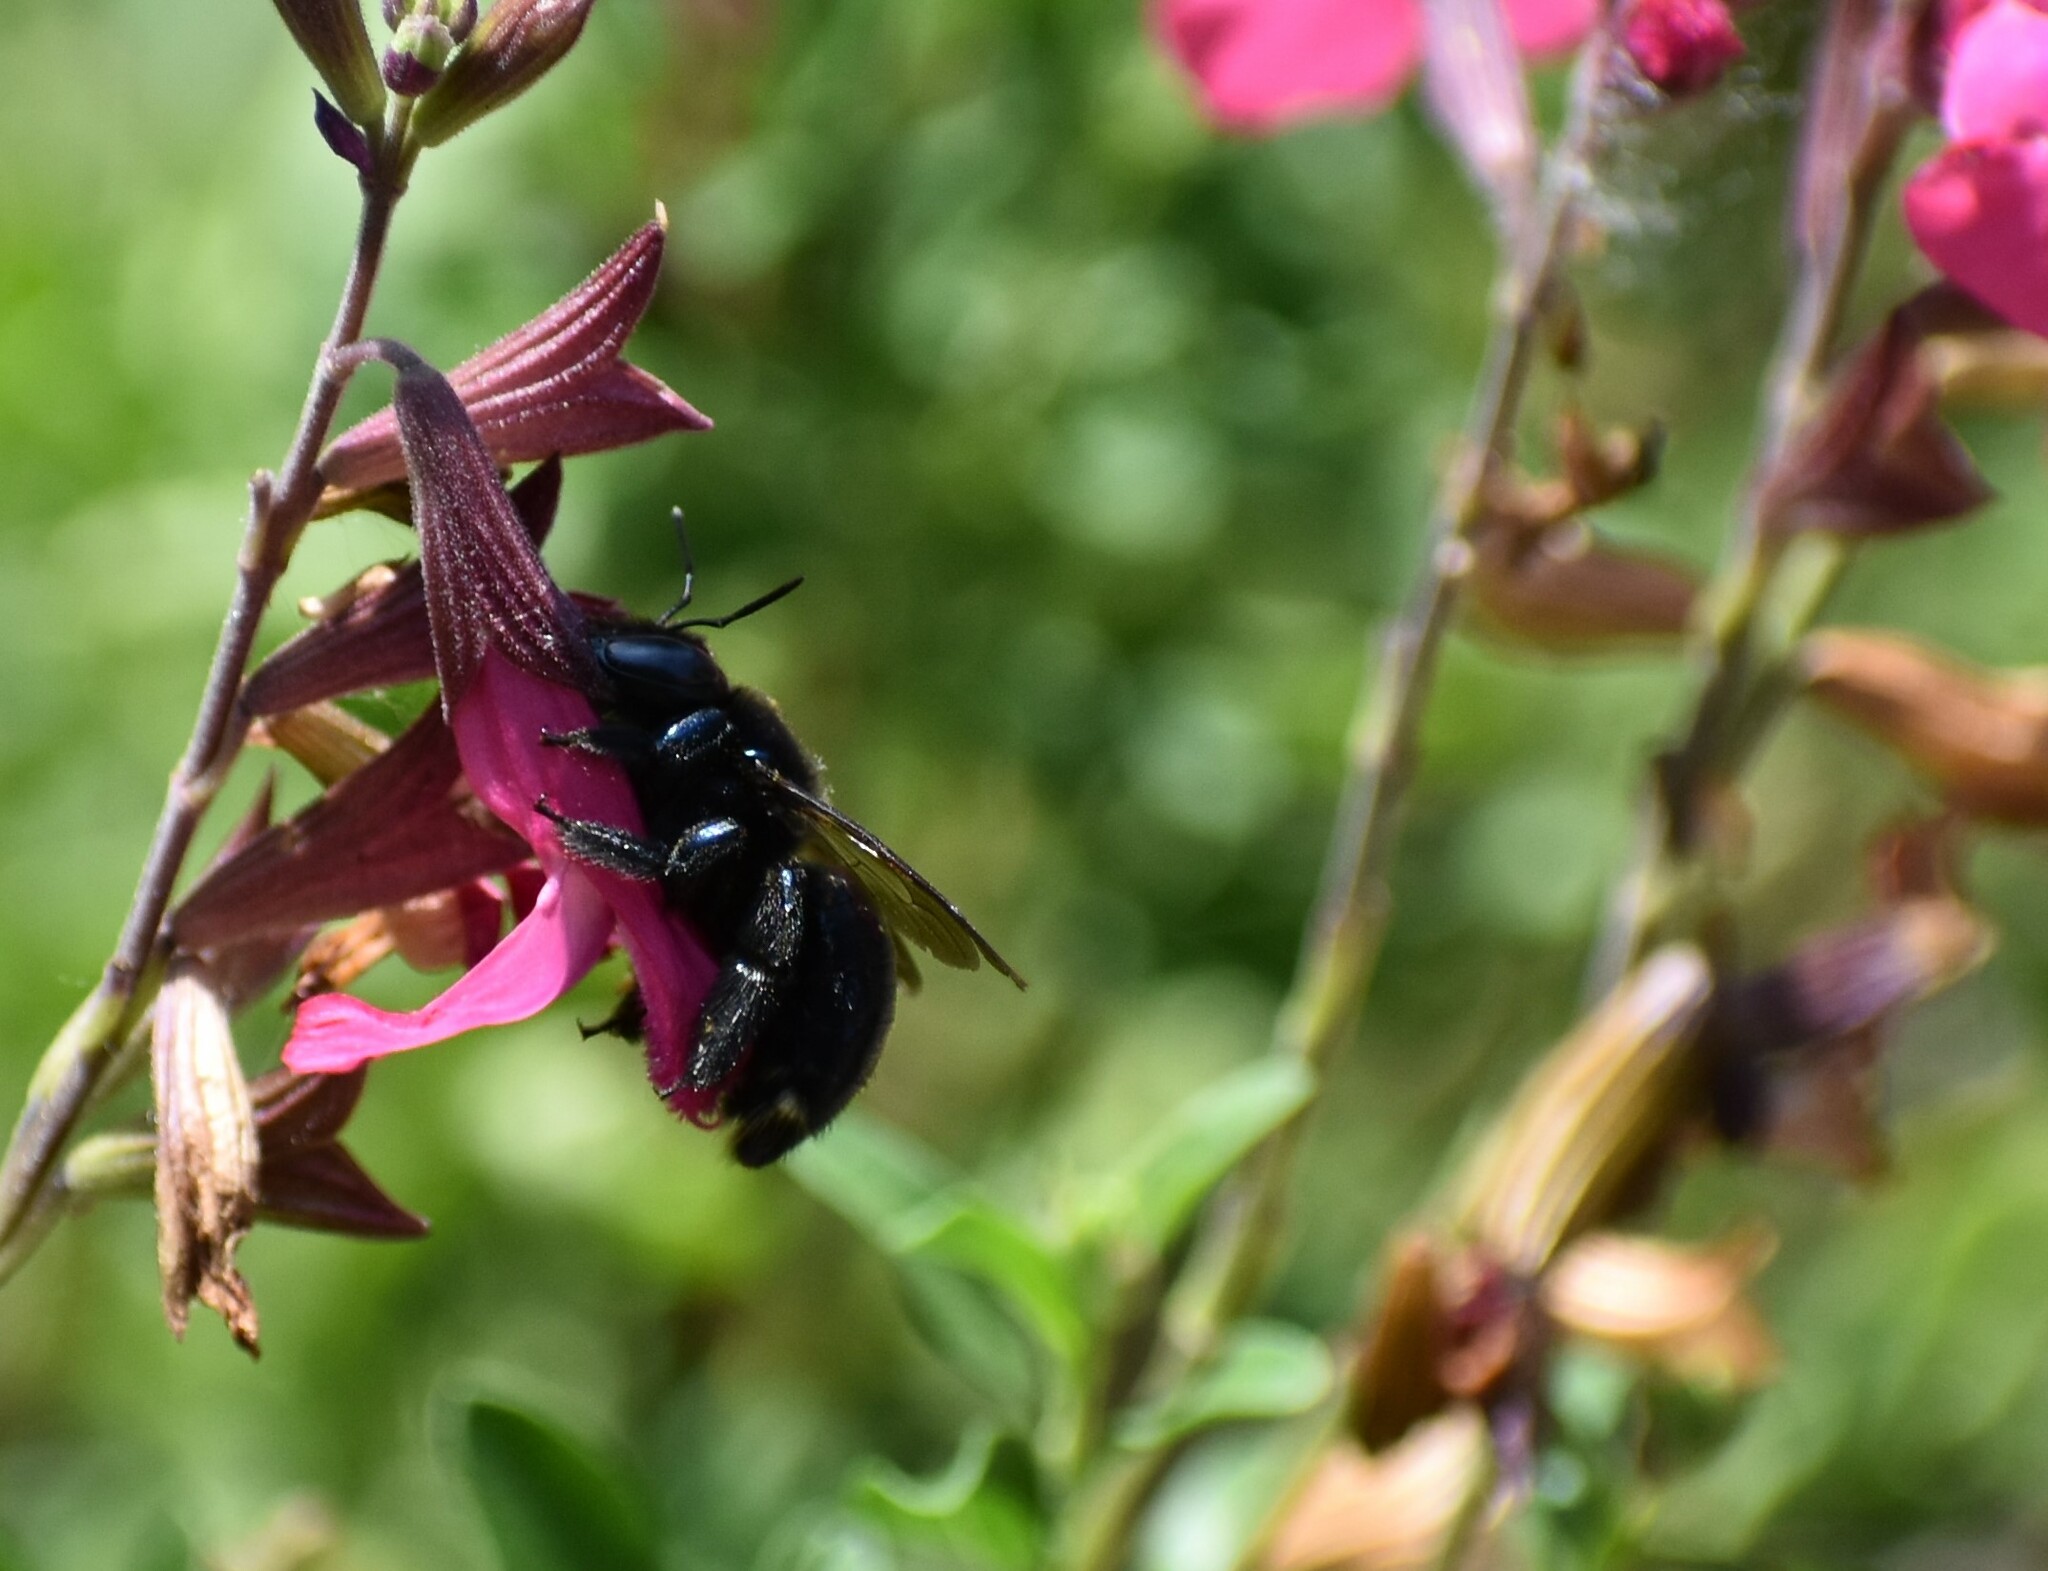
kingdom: Animalia
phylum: Arthropoda
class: Insecta
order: Hymenoptera
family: Apidae
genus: Xylocopa
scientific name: Xylocopa micans
